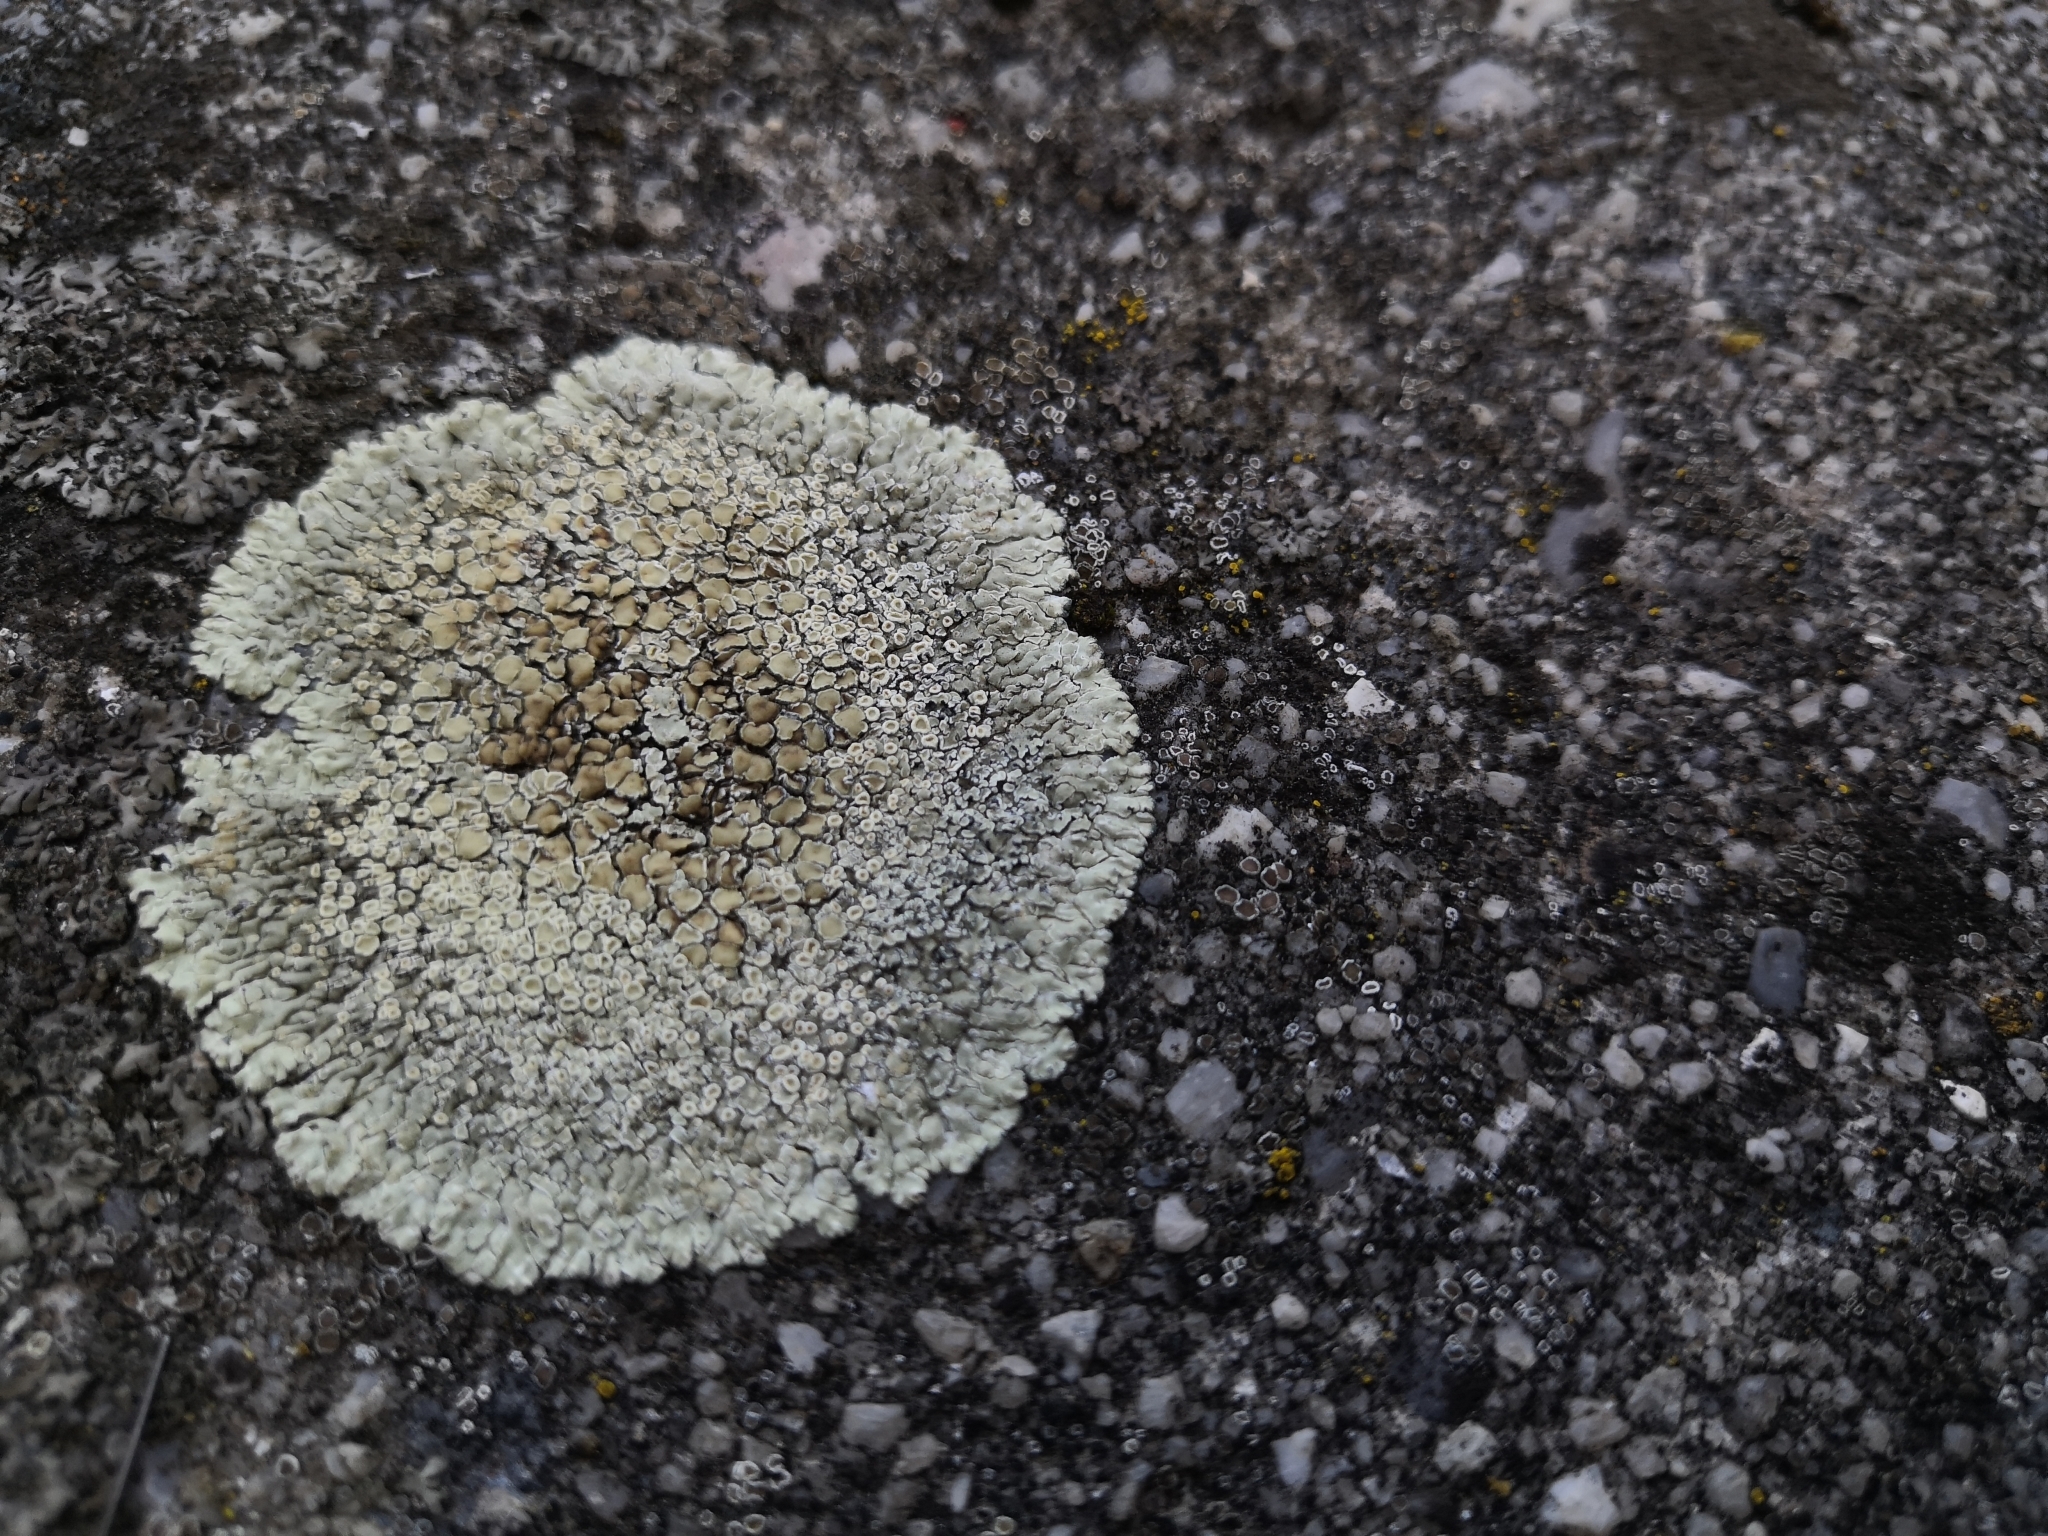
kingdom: Fungi
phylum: Ascomycota
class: Lecanoromycetes
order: Lecanorales
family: Lecanoraceae
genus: Protoparmeliopsis
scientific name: Protoparmeliopsis muralis
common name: Stonewall rim lichen
